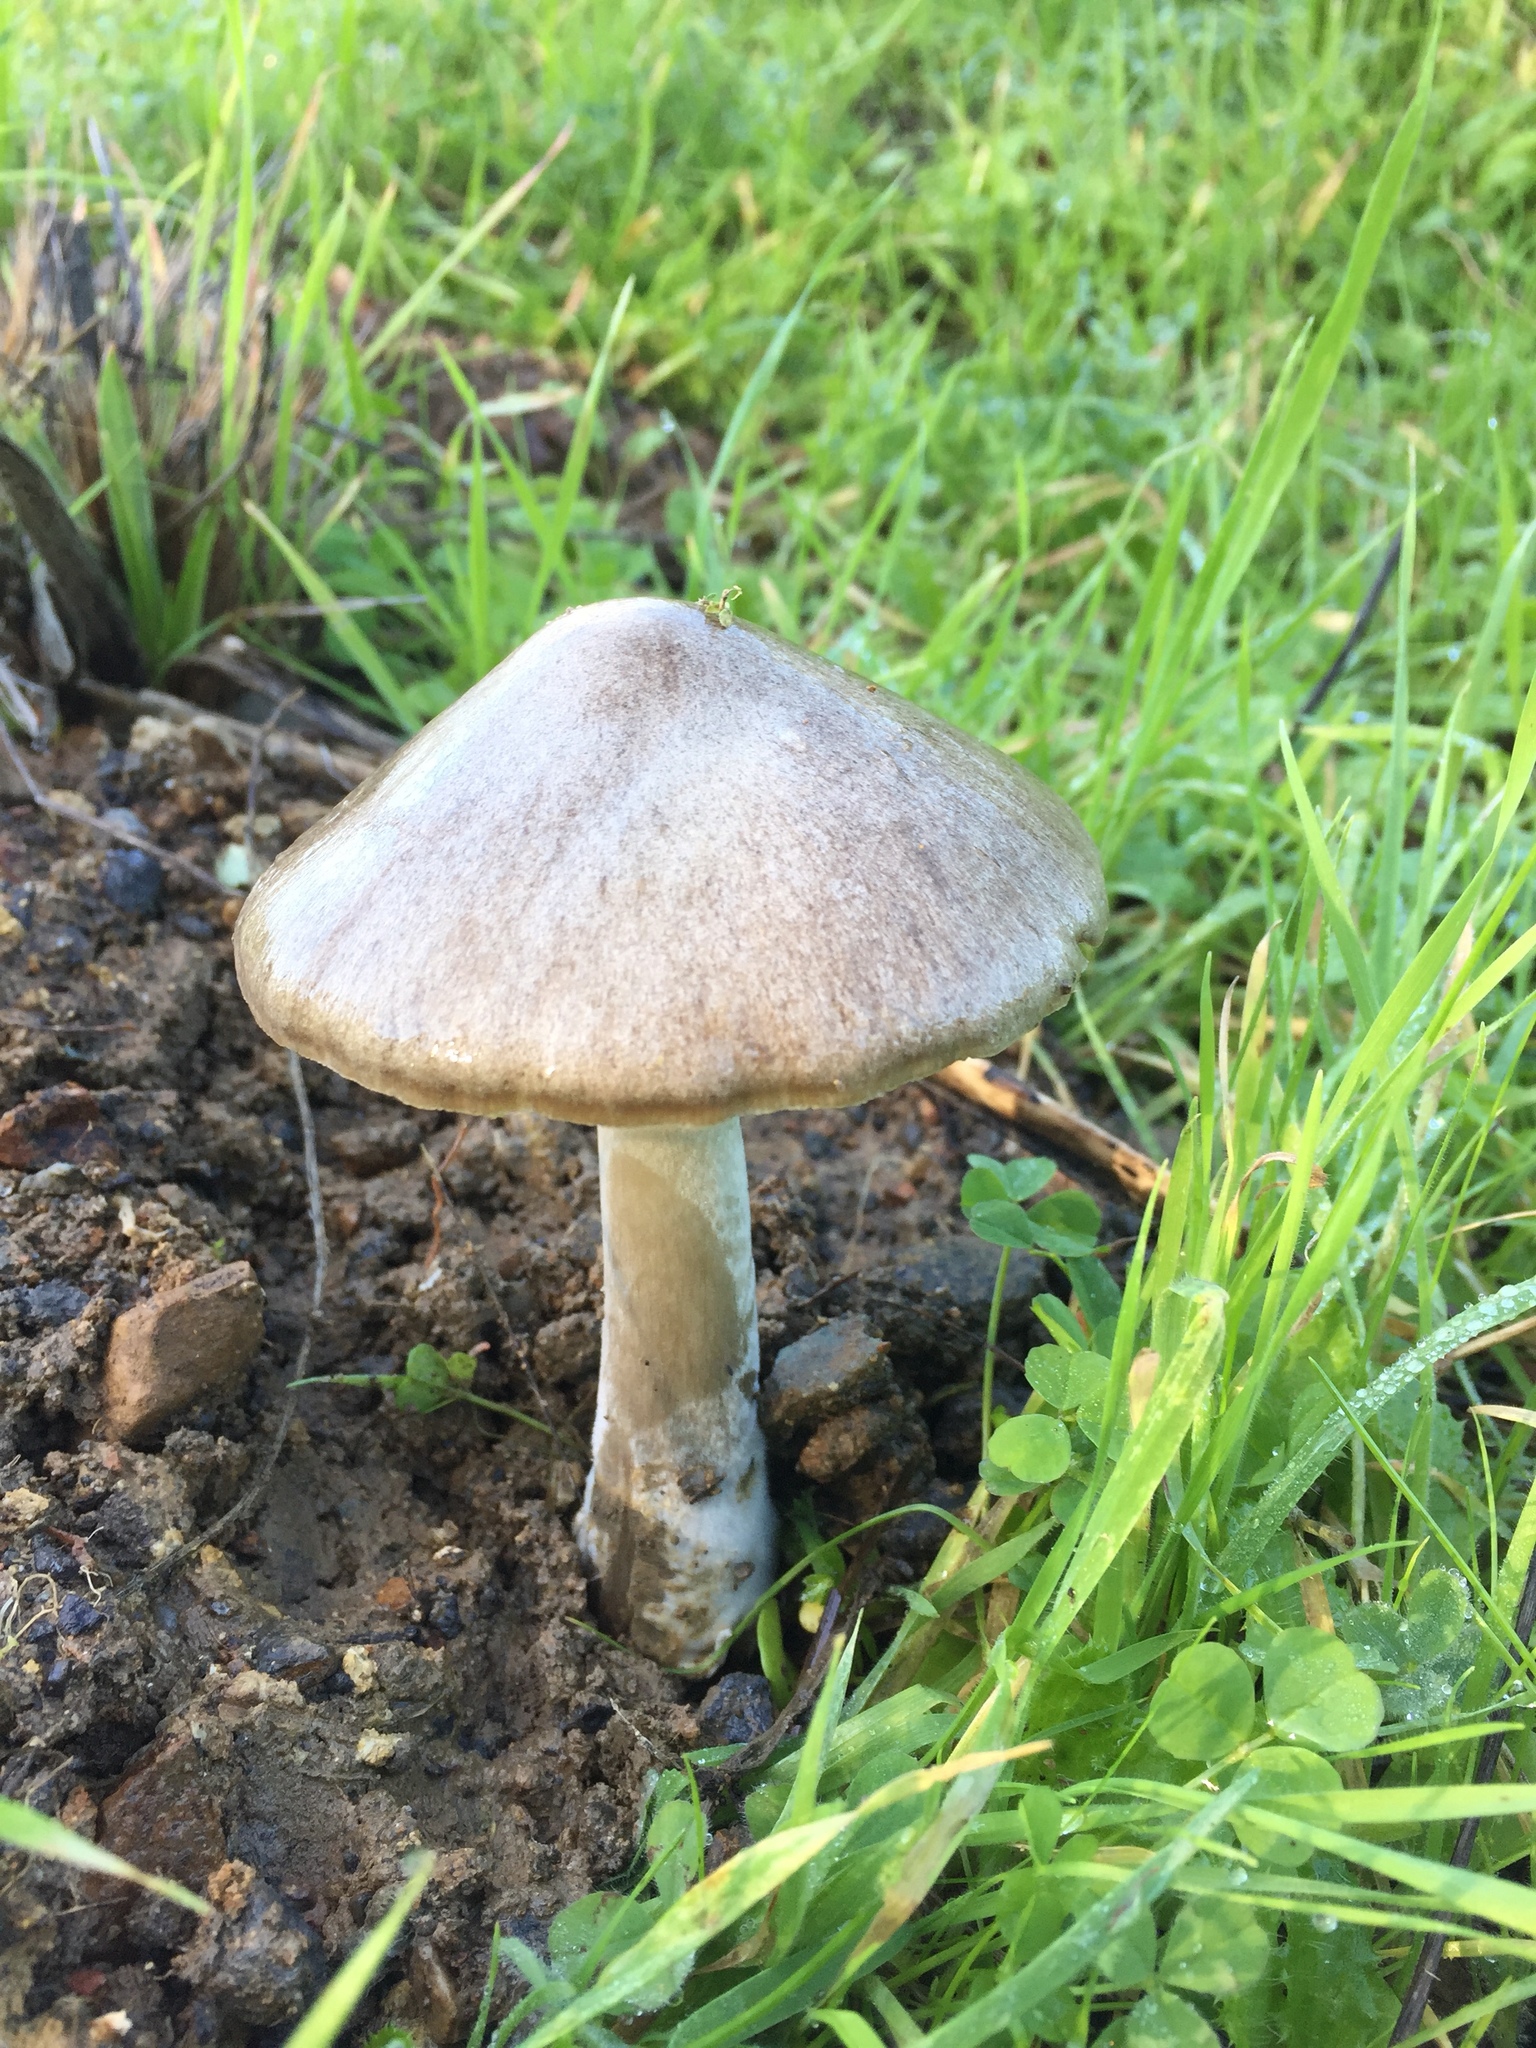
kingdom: Fungi
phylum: Basidiomycota
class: Agaricomycetes
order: Agaricales
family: Pluteaceae
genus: Volvopluteus
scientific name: Volvopluteus gloiocephalus
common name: Stubble rosegill
